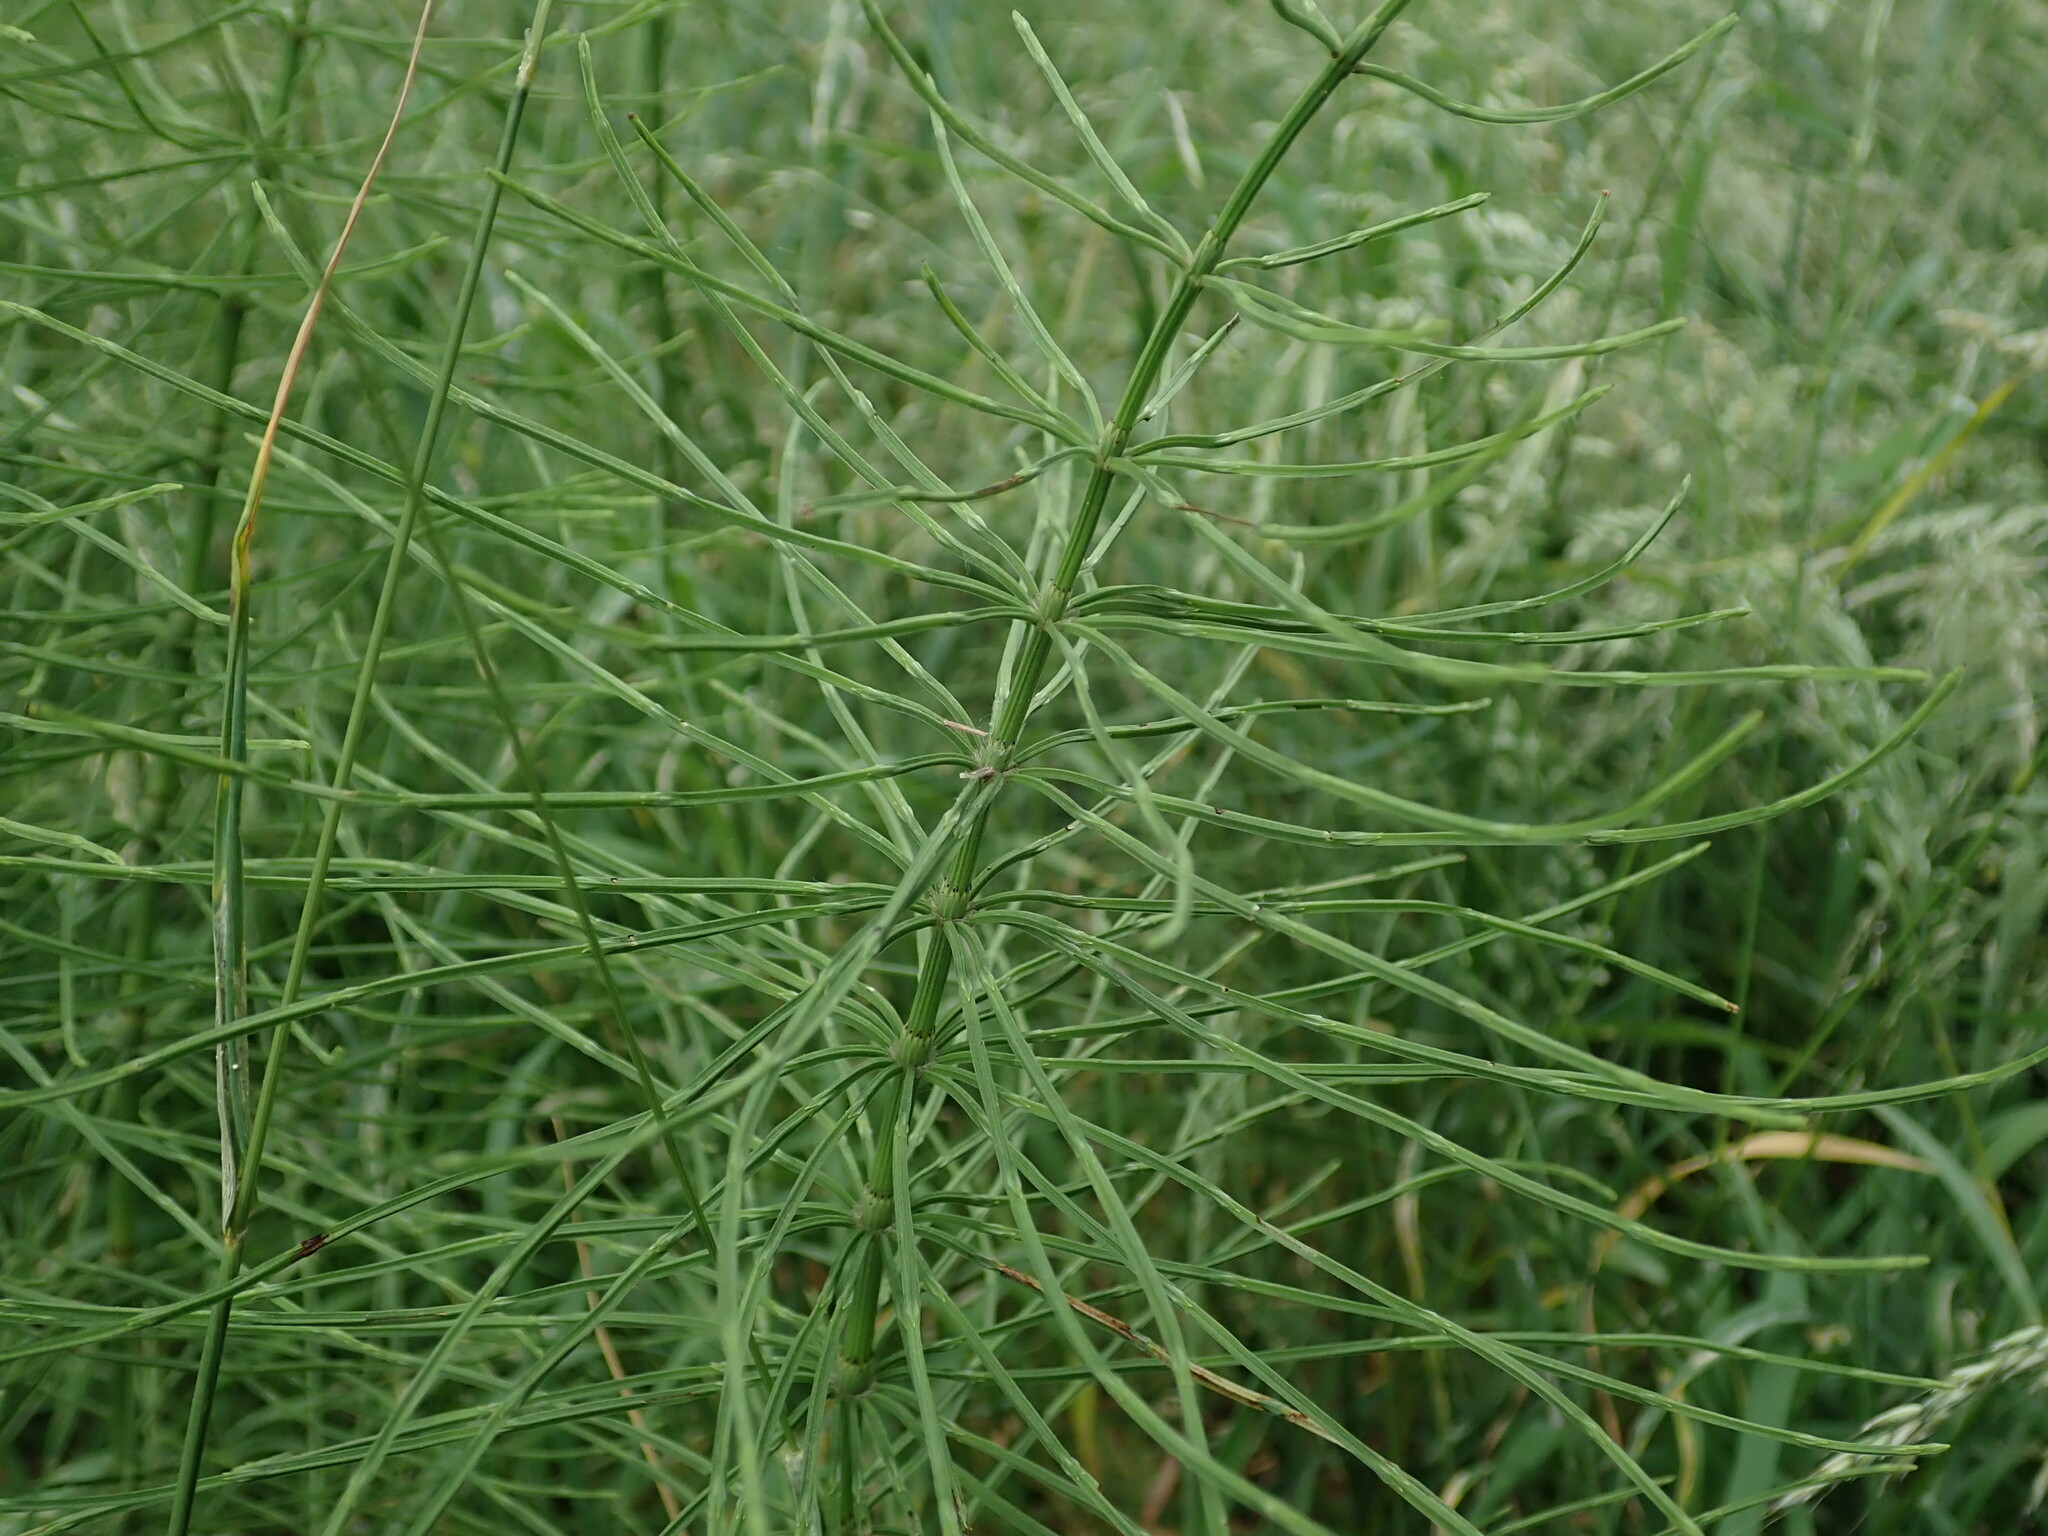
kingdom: Plantae
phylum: Tracheophyta
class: Polypodiopsida
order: Equisetales
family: Equisetaceae
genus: Equisetum
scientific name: Equisetum arvense
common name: Field horsetail
